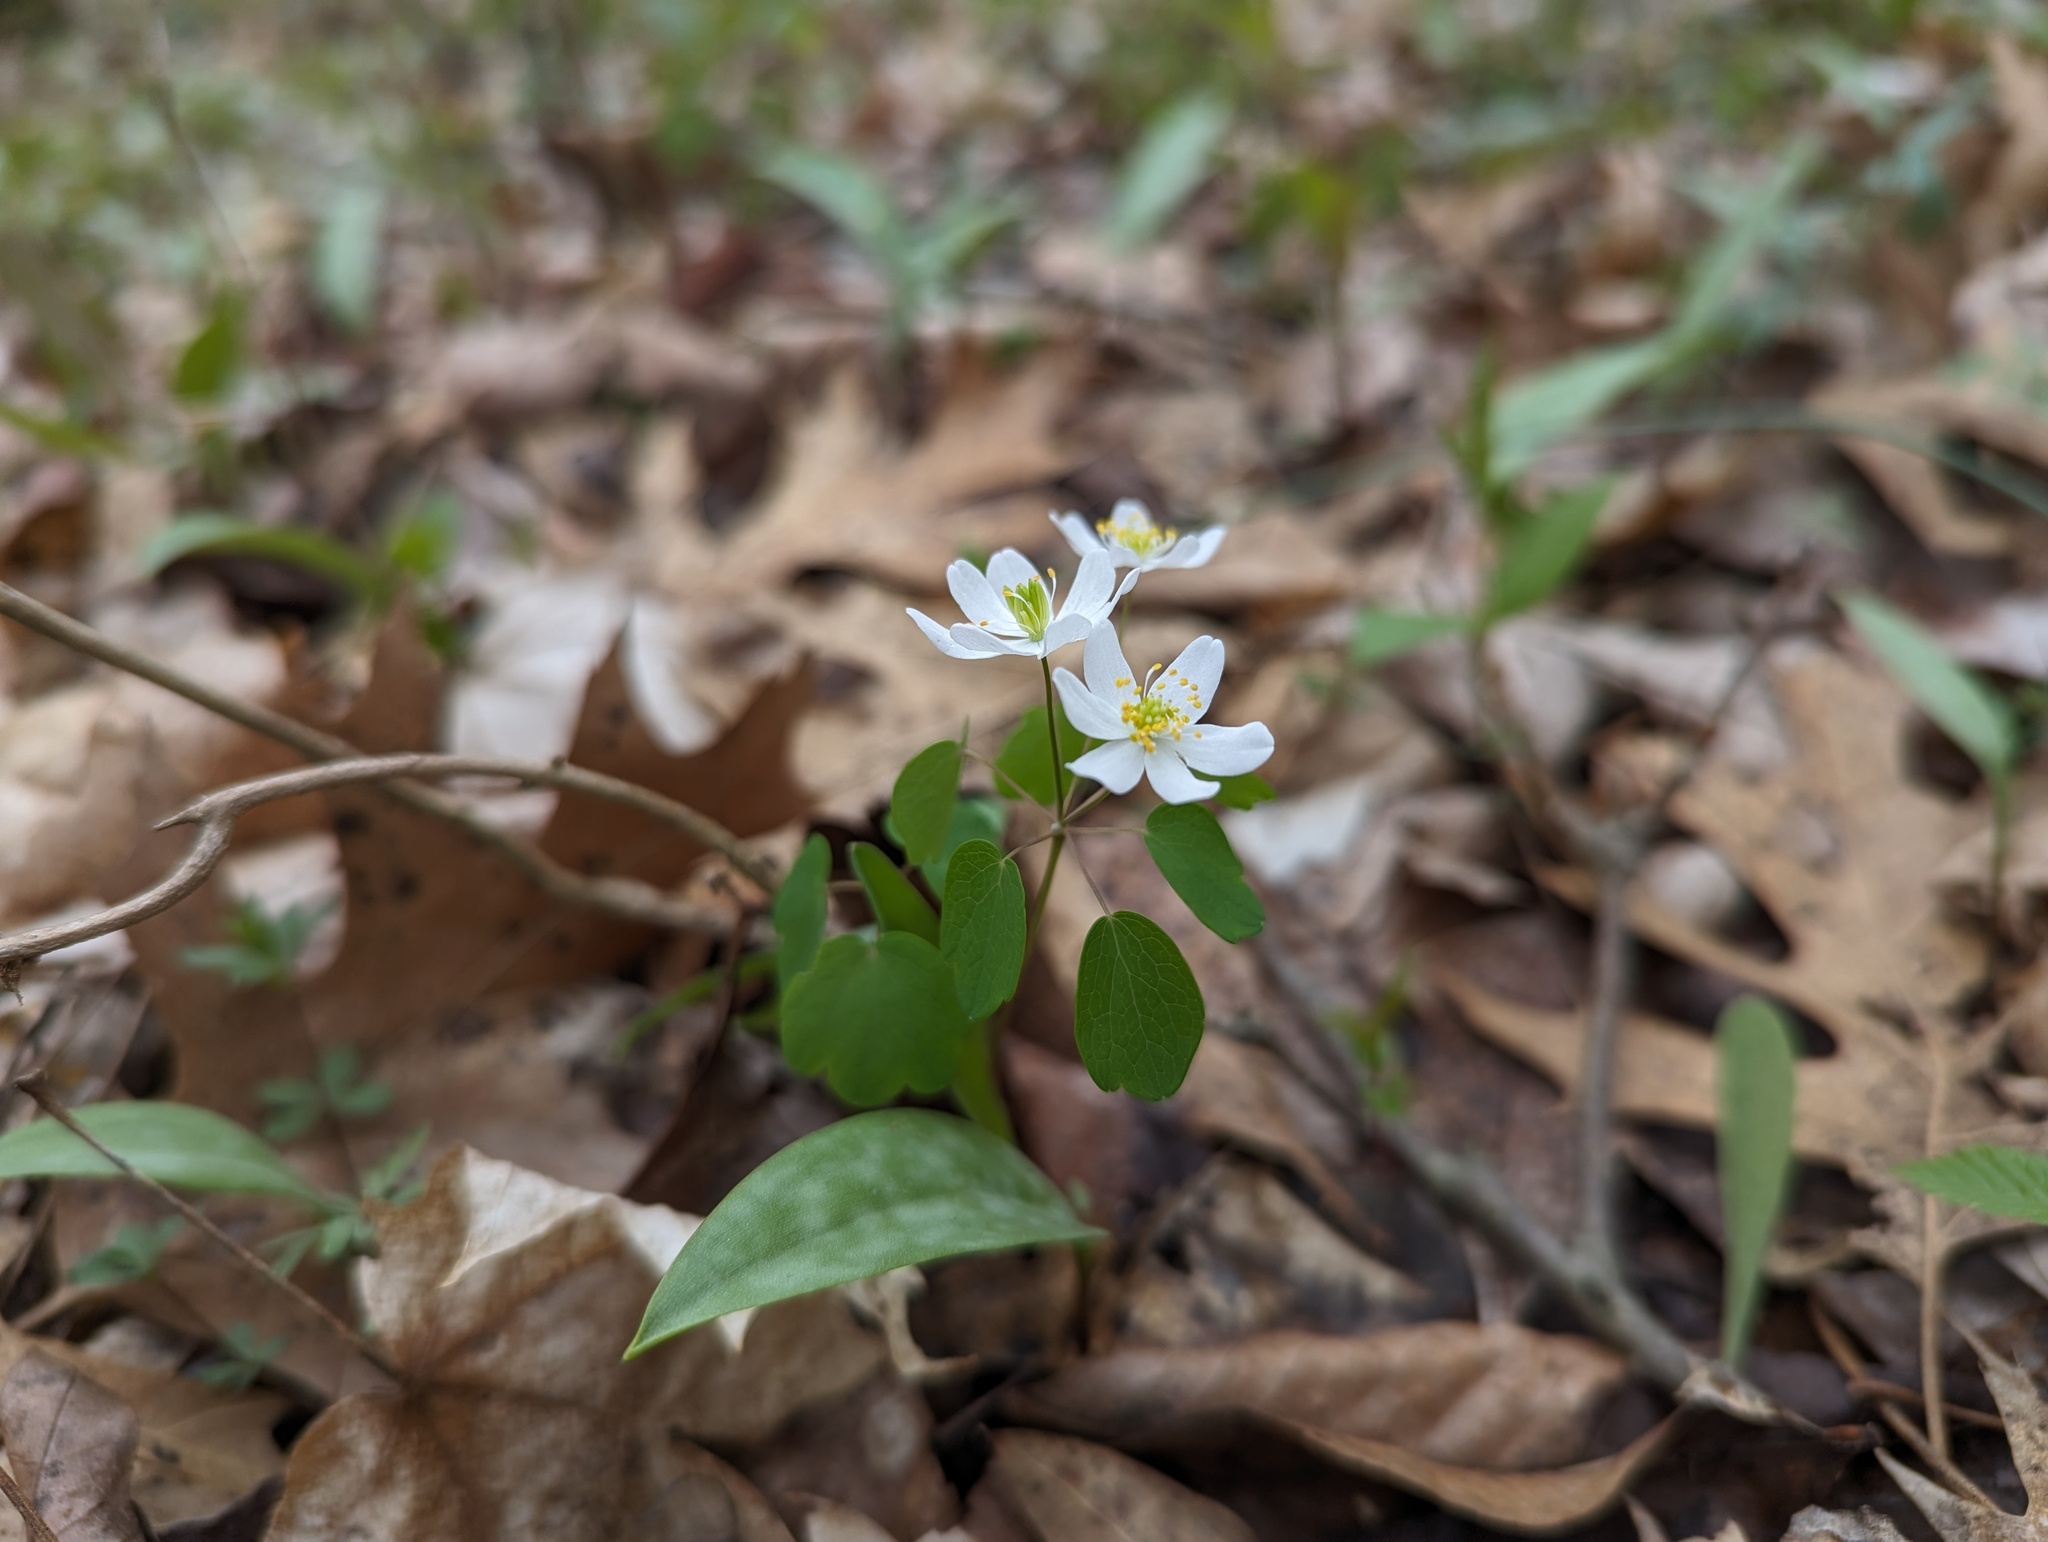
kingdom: Plantae
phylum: Tracheophyta
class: Magnoliopsida
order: Ranunculales
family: Ranunculaceae
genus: Thalictrum
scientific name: Thalictrum thalictroides
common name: Rue-anemone
